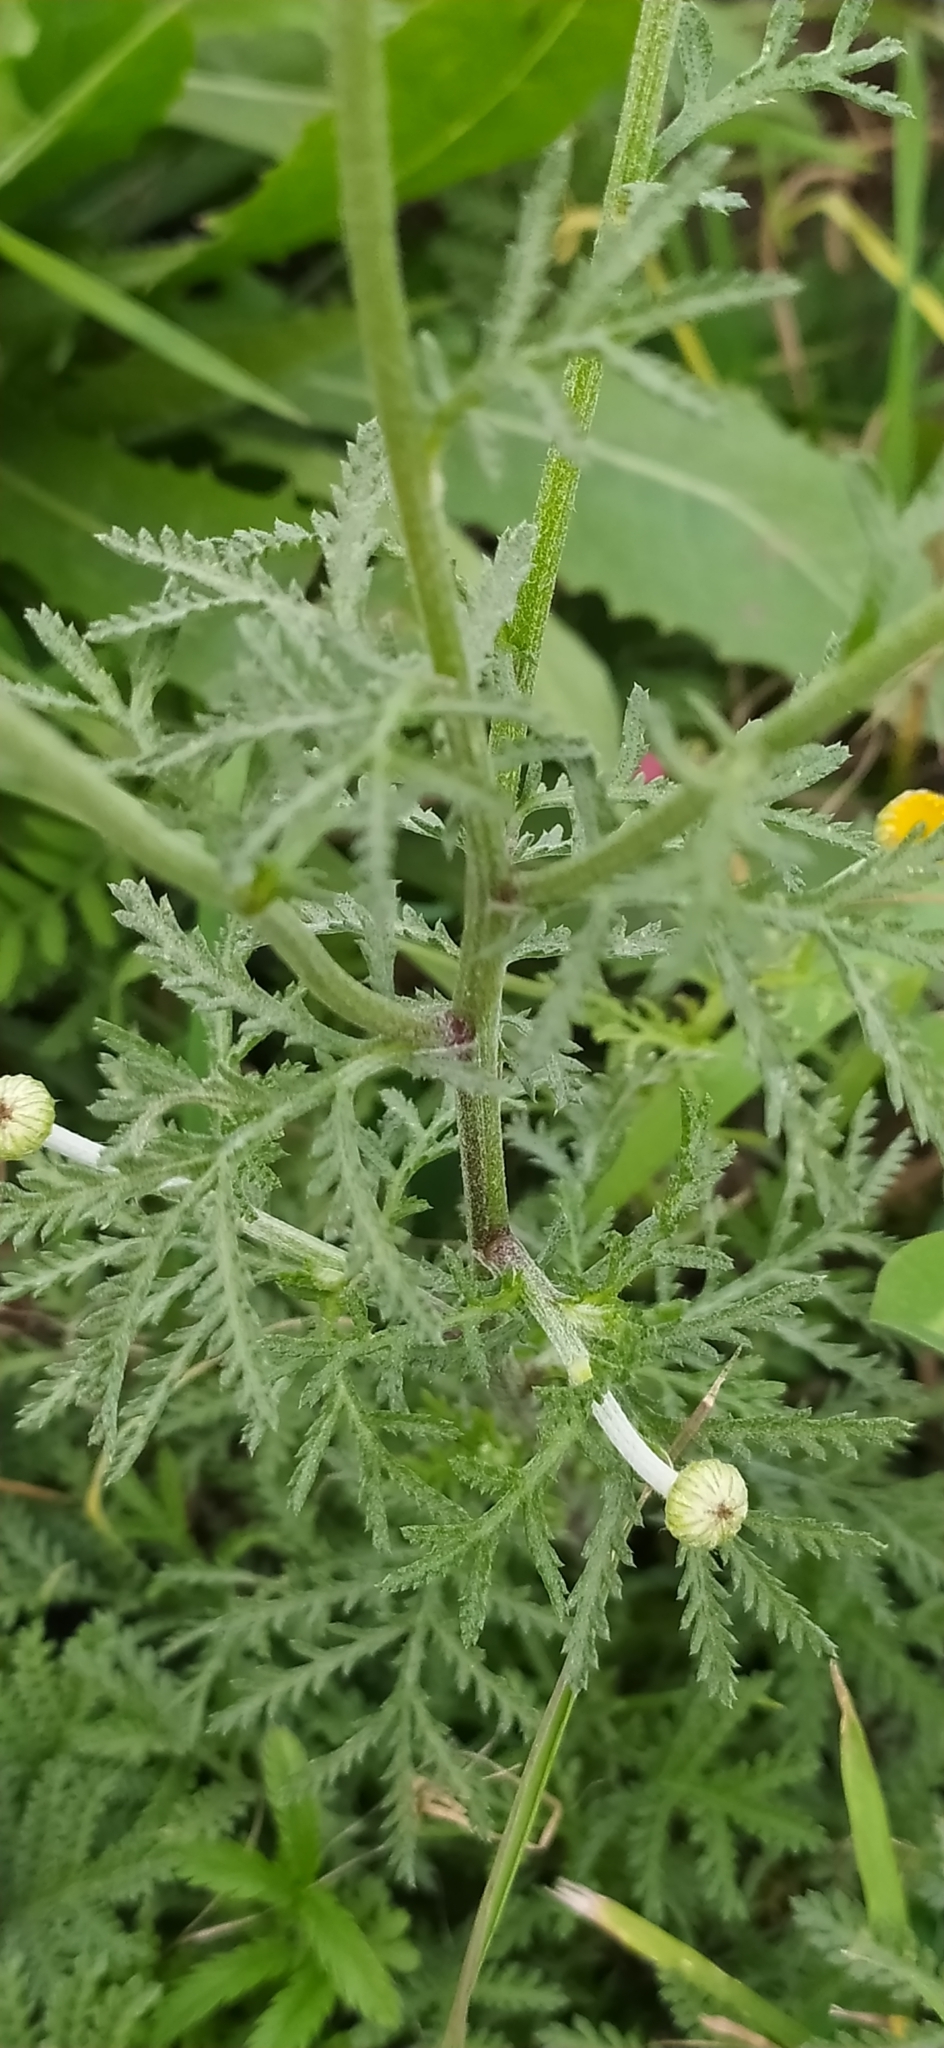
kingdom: Plantae
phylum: Tracheophyta
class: Magnoliopsida
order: Asterales
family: Asteraceae
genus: Cota
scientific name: Cota tinctoria
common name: Golden chamomile
